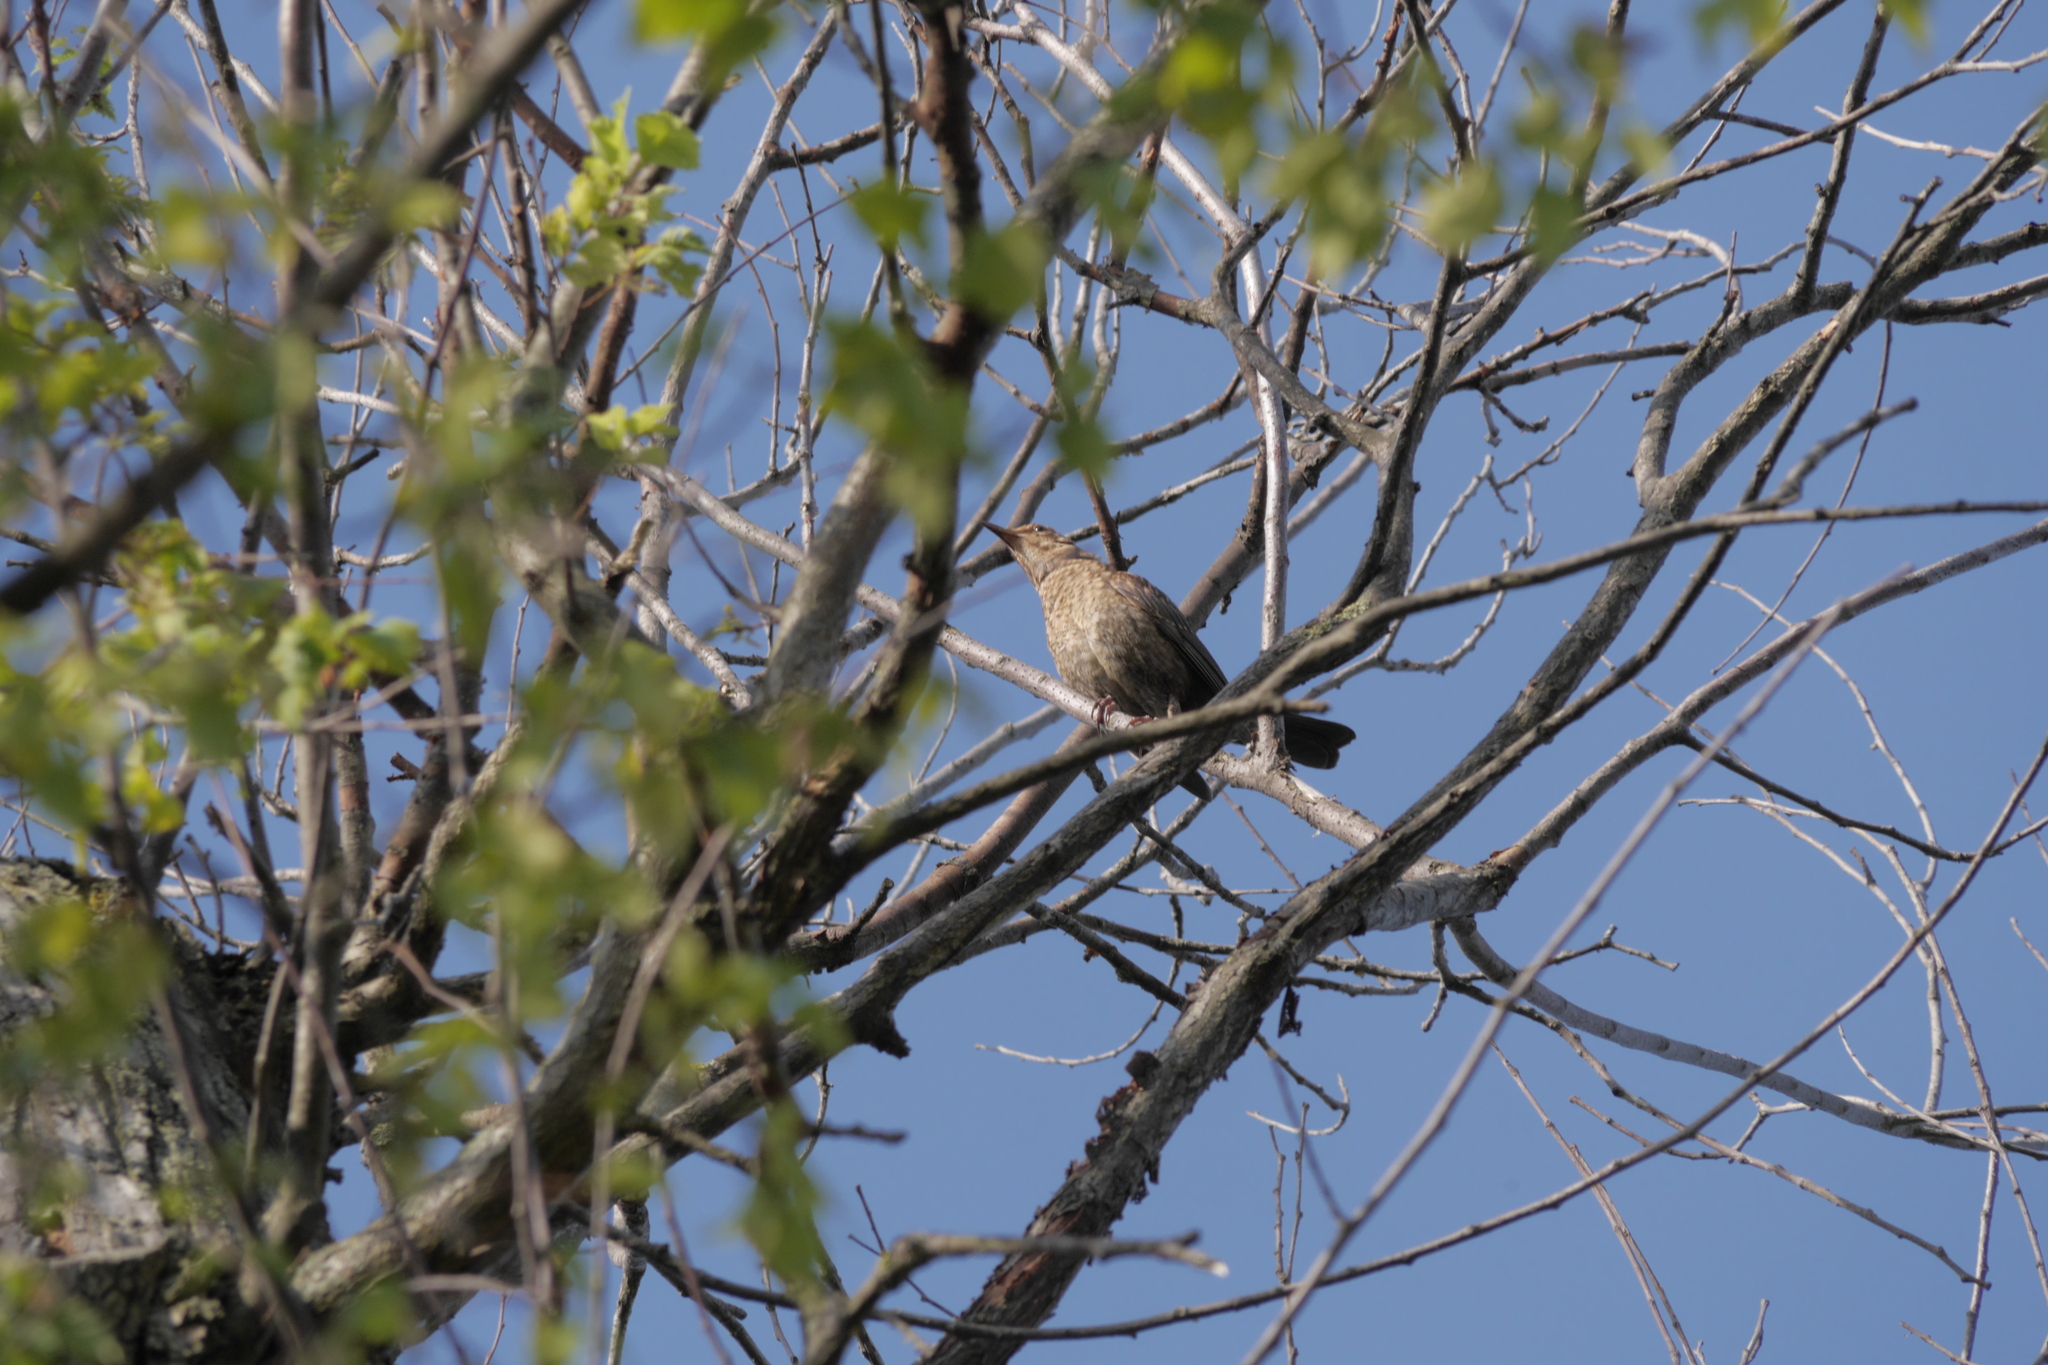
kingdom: Animalia
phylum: Chordata
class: Aves
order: Passeriformes
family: Turdidae
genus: Turdus
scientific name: Turdus merula
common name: Common blackbird
